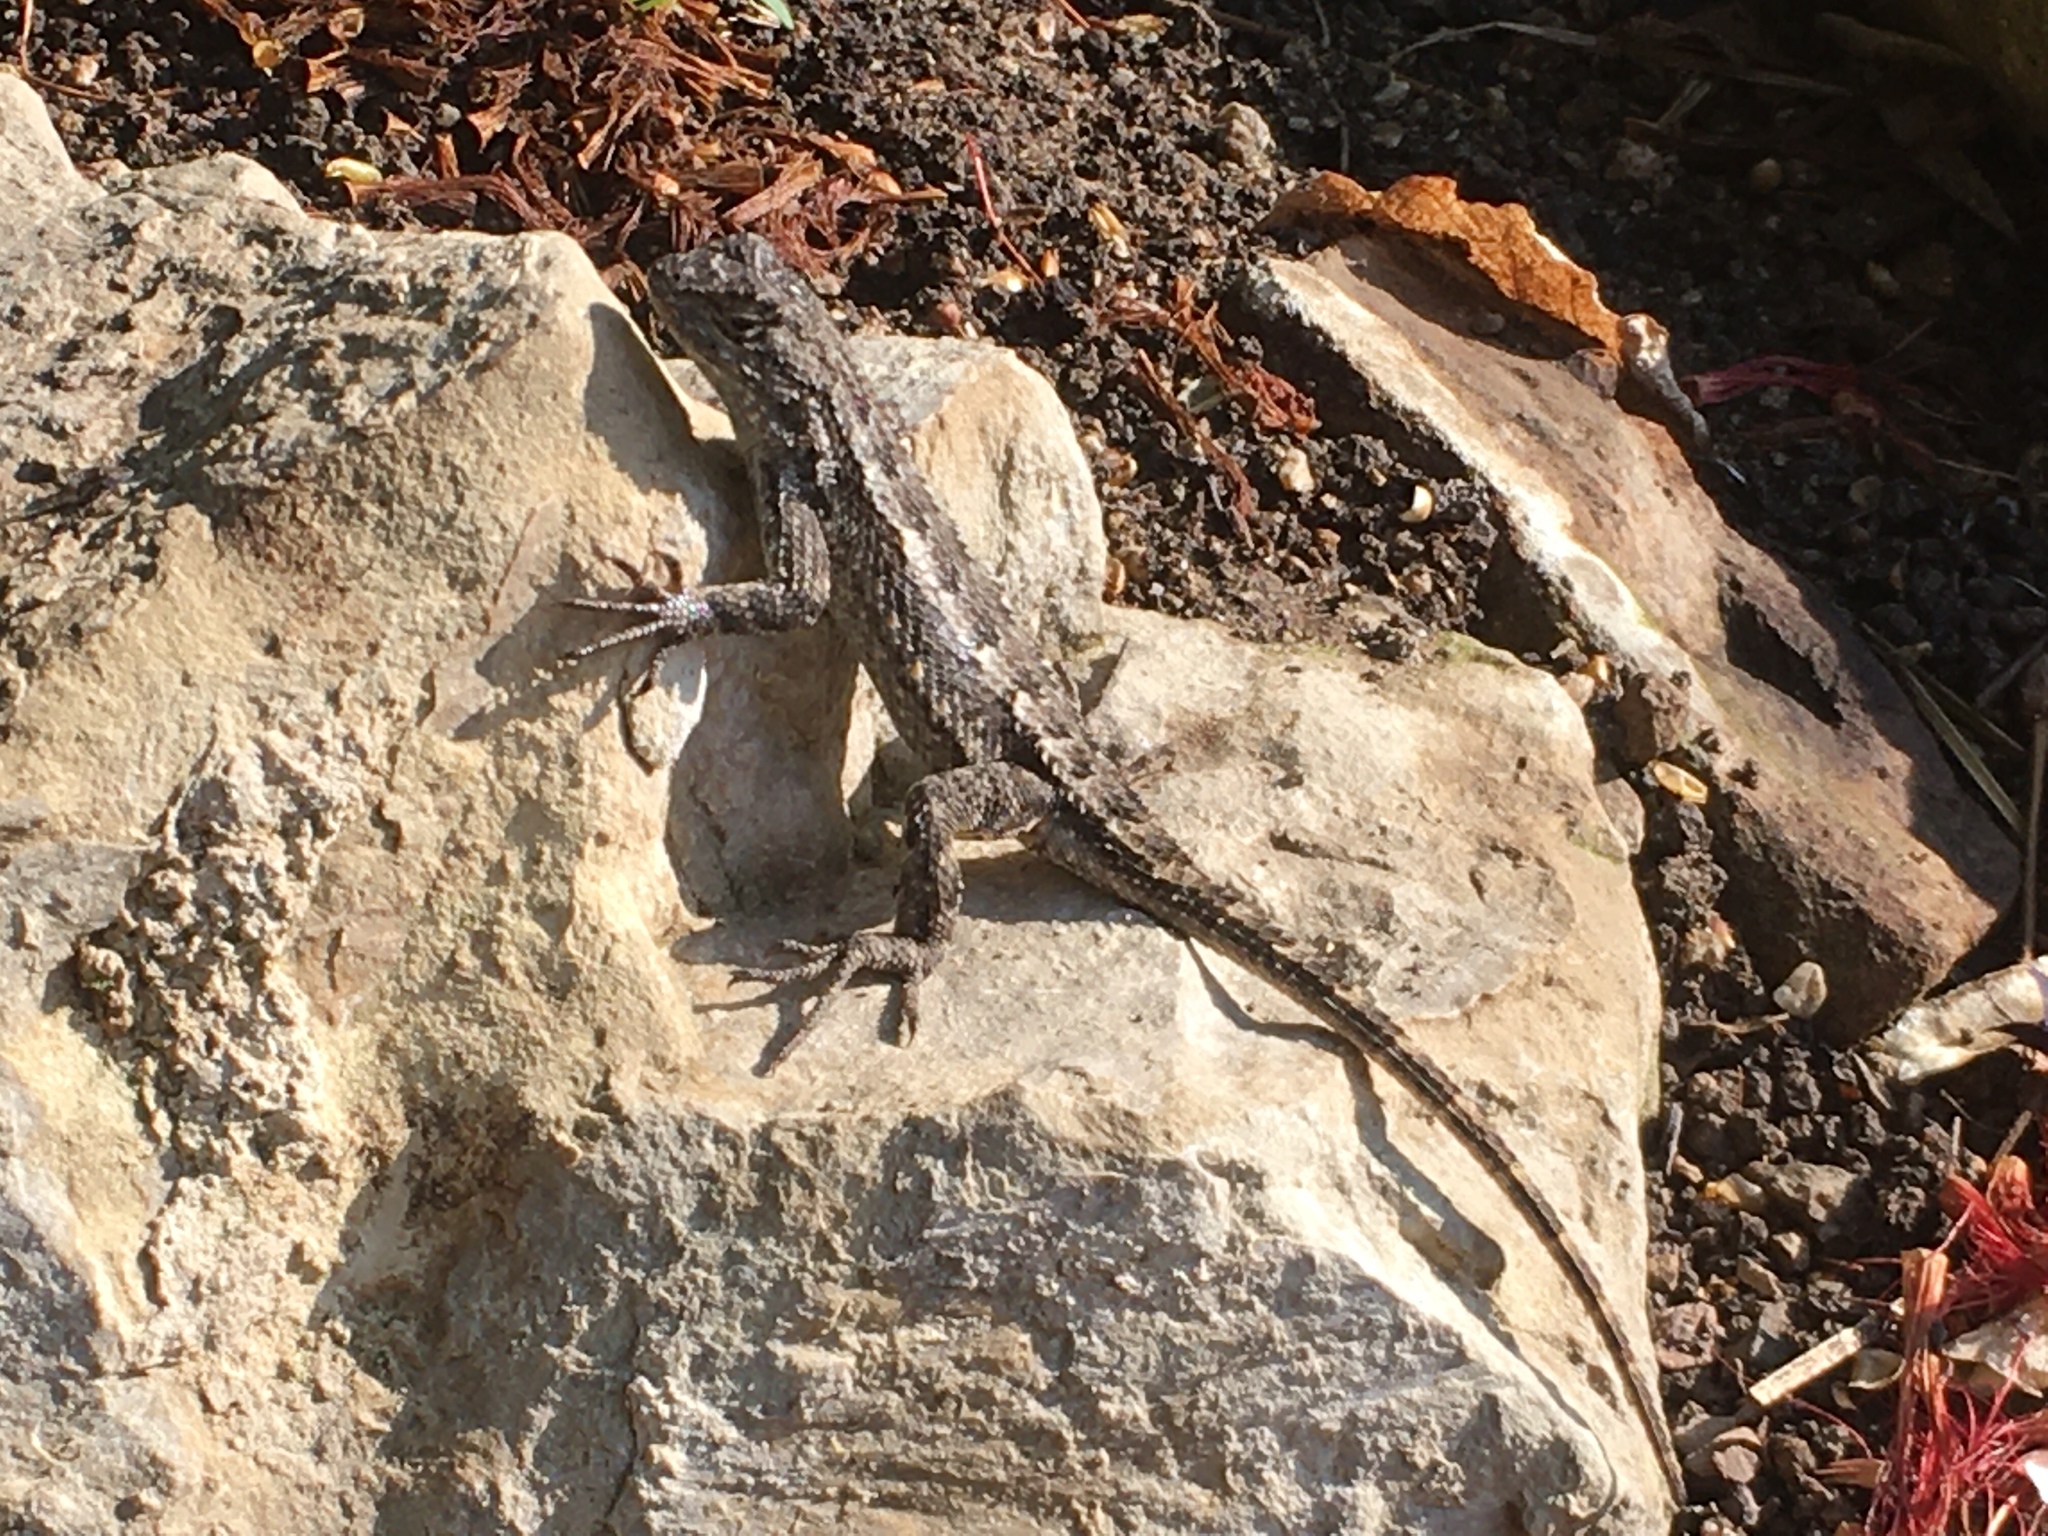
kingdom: Animalia
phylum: Chordata
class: Squamata
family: Phrynosomatidae
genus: Sceloporus
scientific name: Sceloporus occidentalis
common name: Western fence lizard
